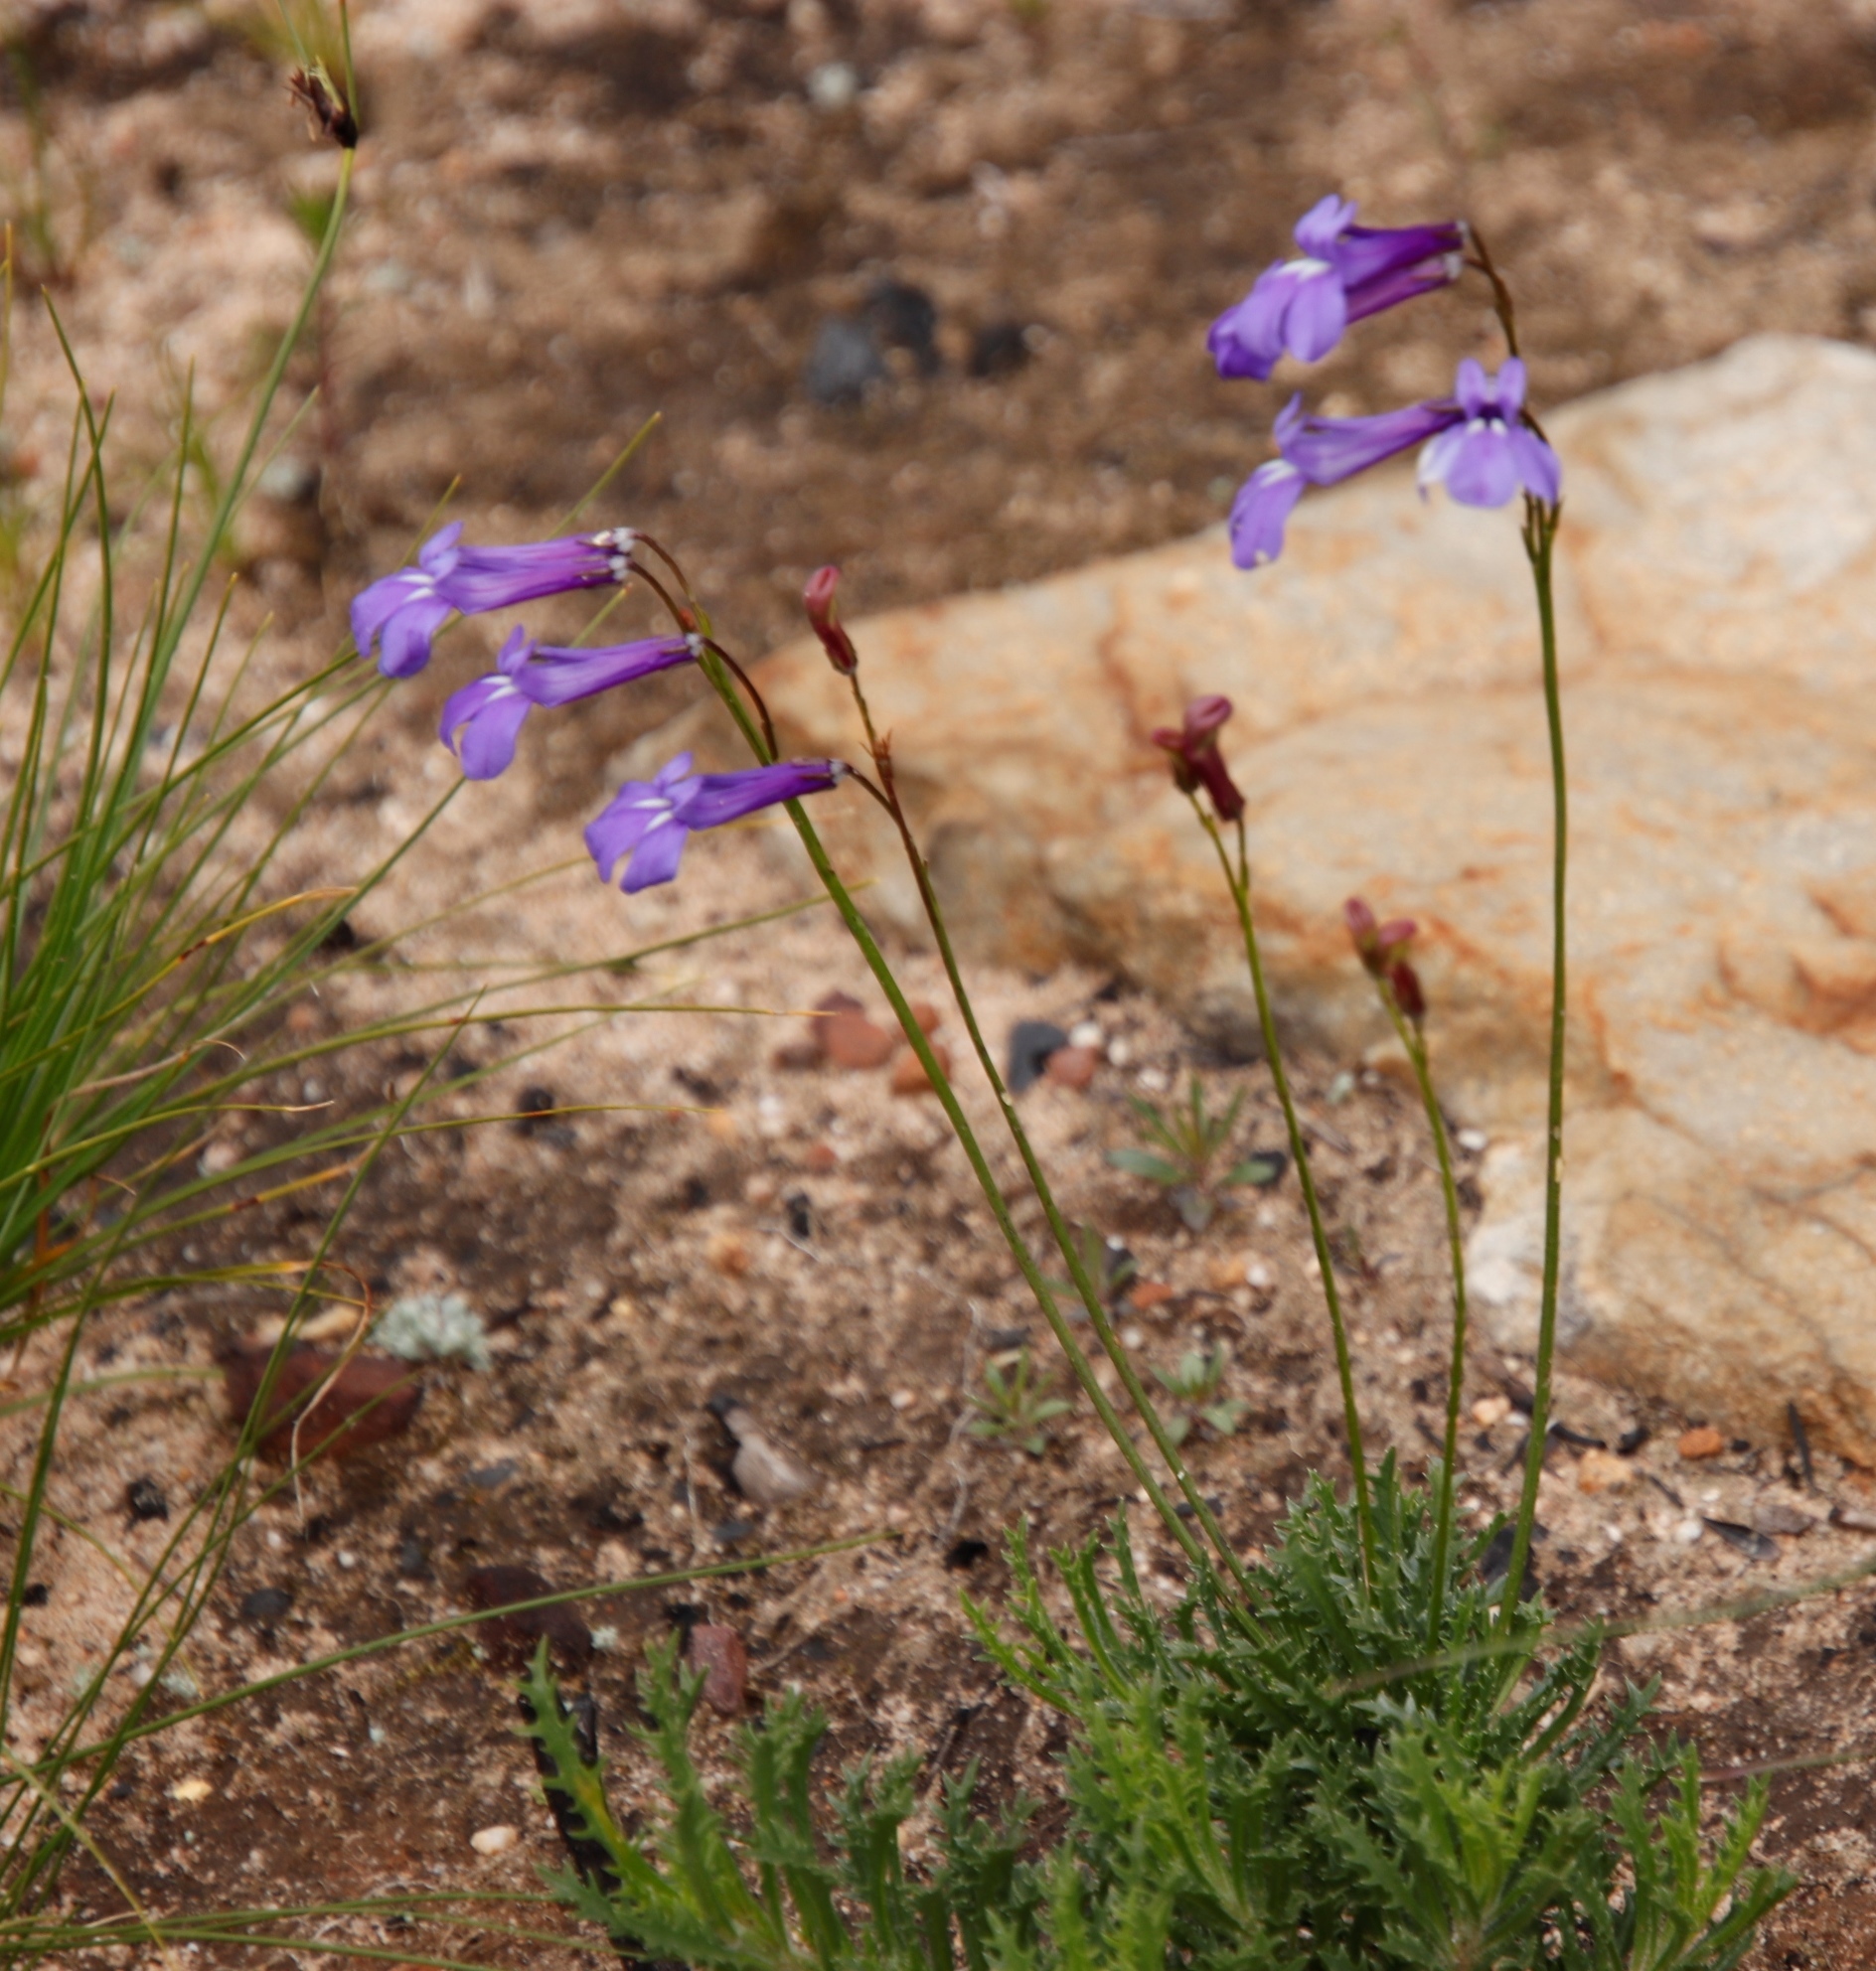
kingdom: Plantae
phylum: Tracheophyta
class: Magnoliopsida
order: Asterales
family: Campanulaceae
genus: Lobelia
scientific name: Lobelia coronopifolia
